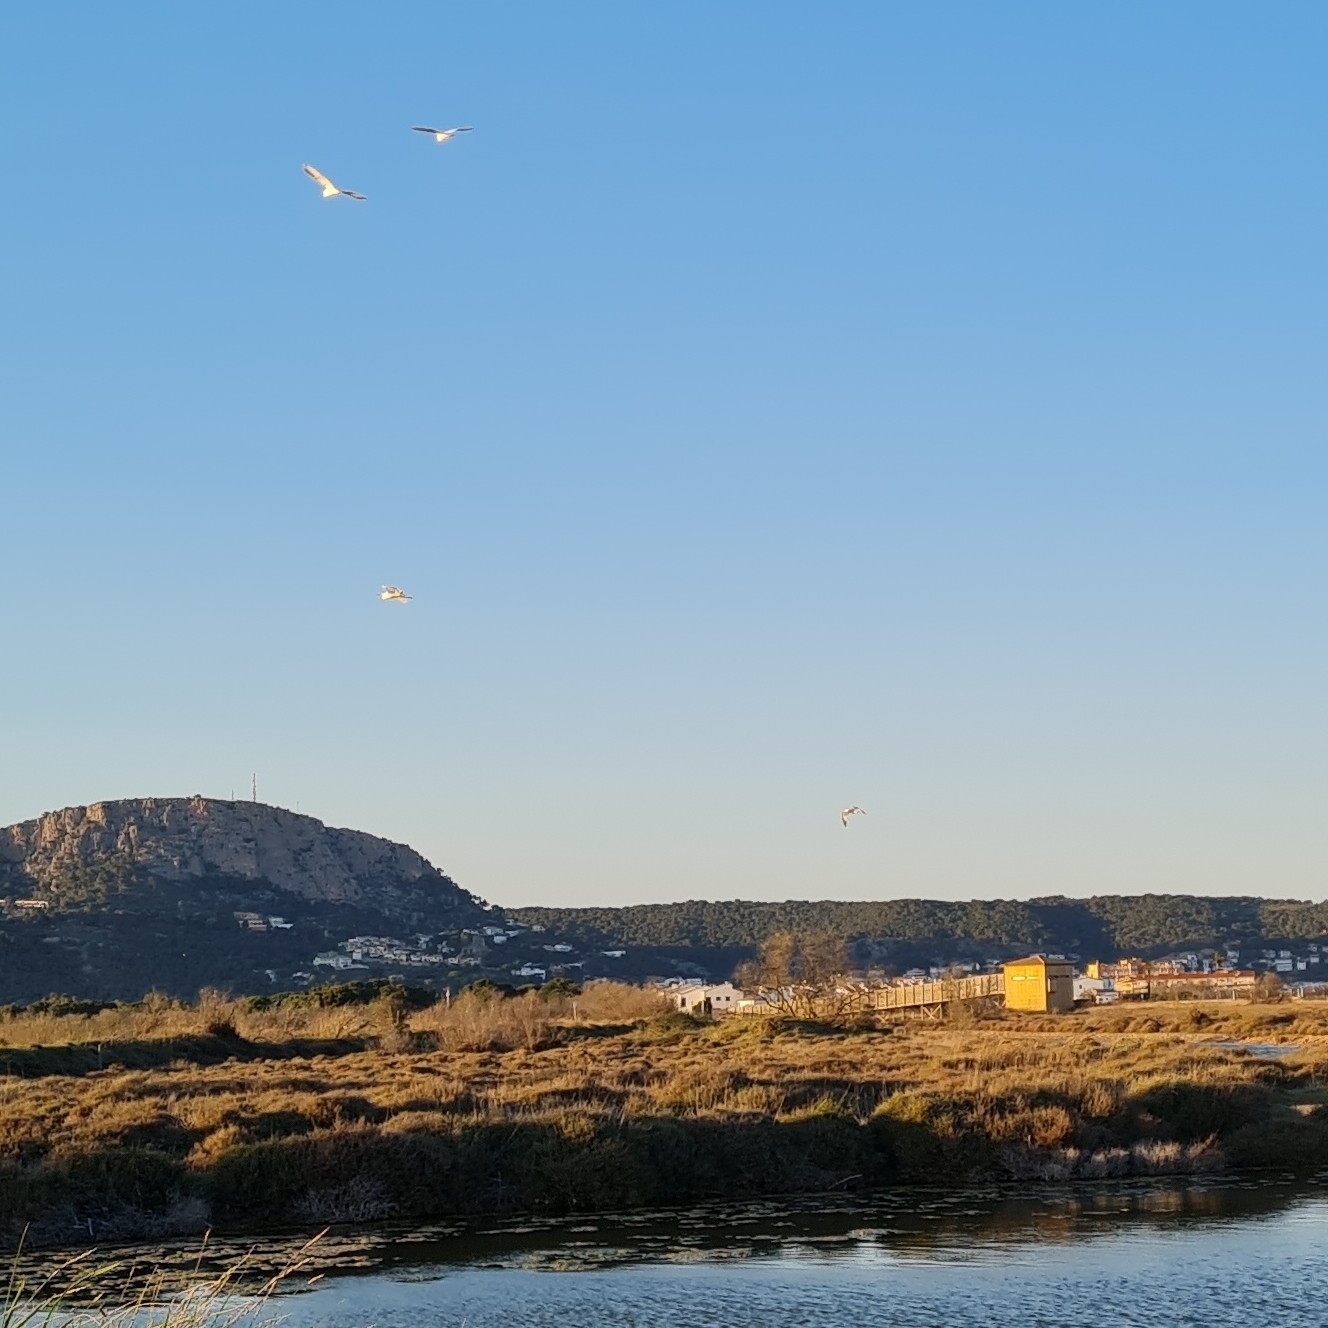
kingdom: Animalia
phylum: Chordata
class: Aves
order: Pelecaniformes
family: Ardeidae
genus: Ardea
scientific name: Ardea alba
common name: Great egret
